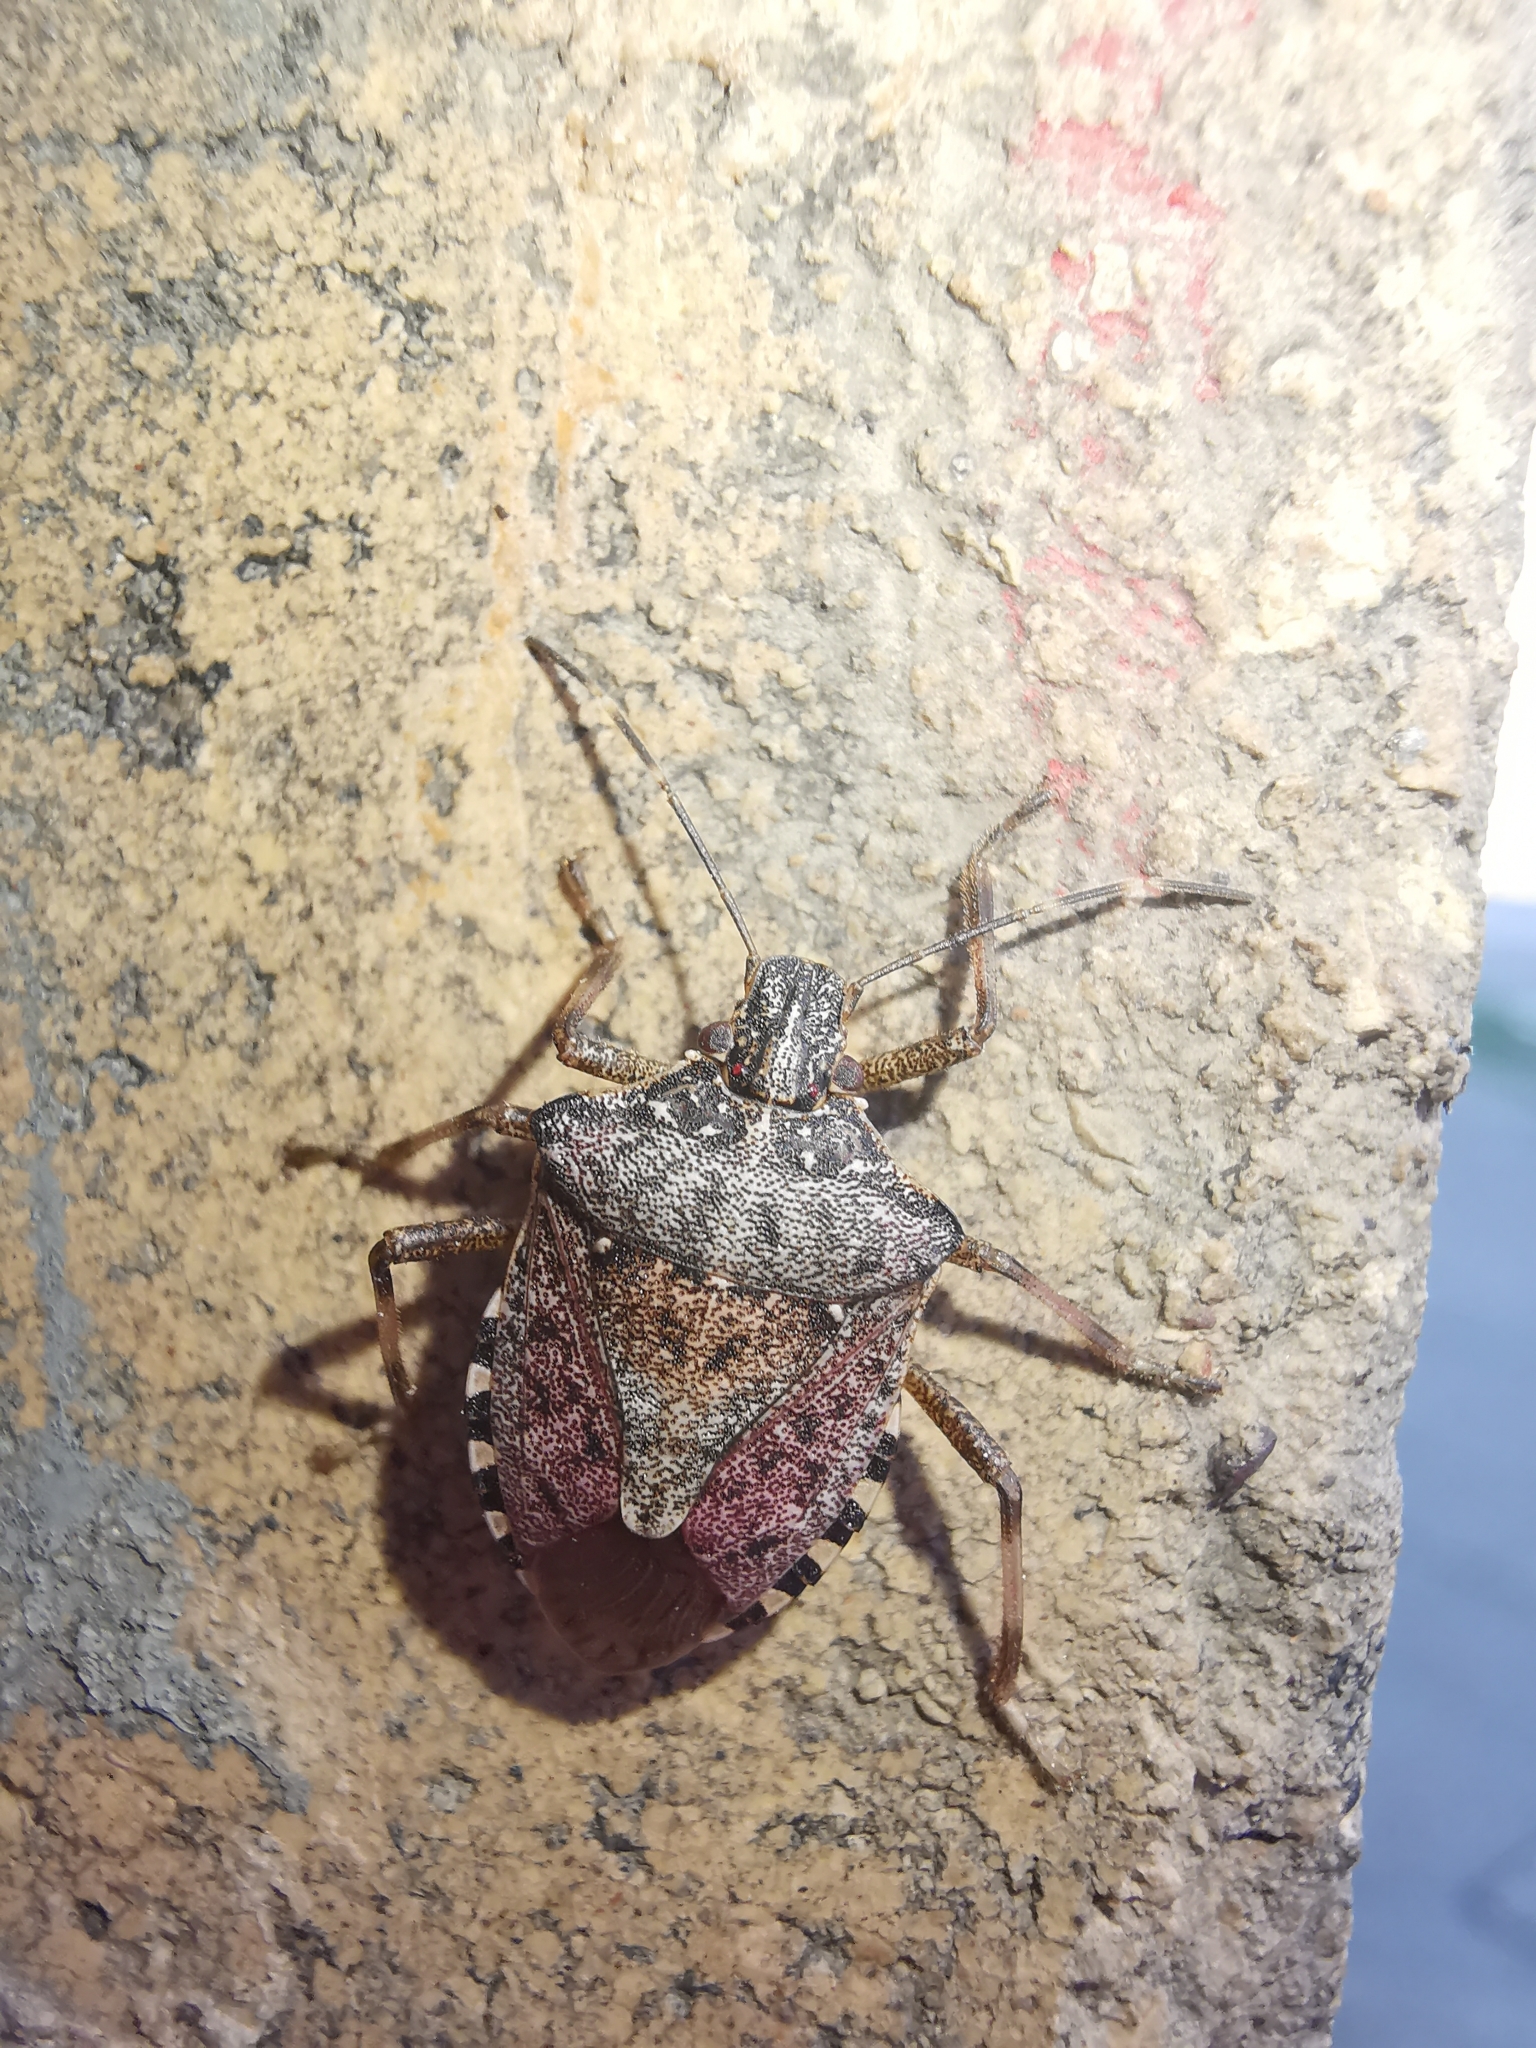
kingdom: Animalia
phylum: Arthropoda
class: Insecta
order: Hemiptera
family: Pentatomidae
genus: Halyomorpha
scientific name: Halyomorpha halys
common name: Brown marmorated stink bug
